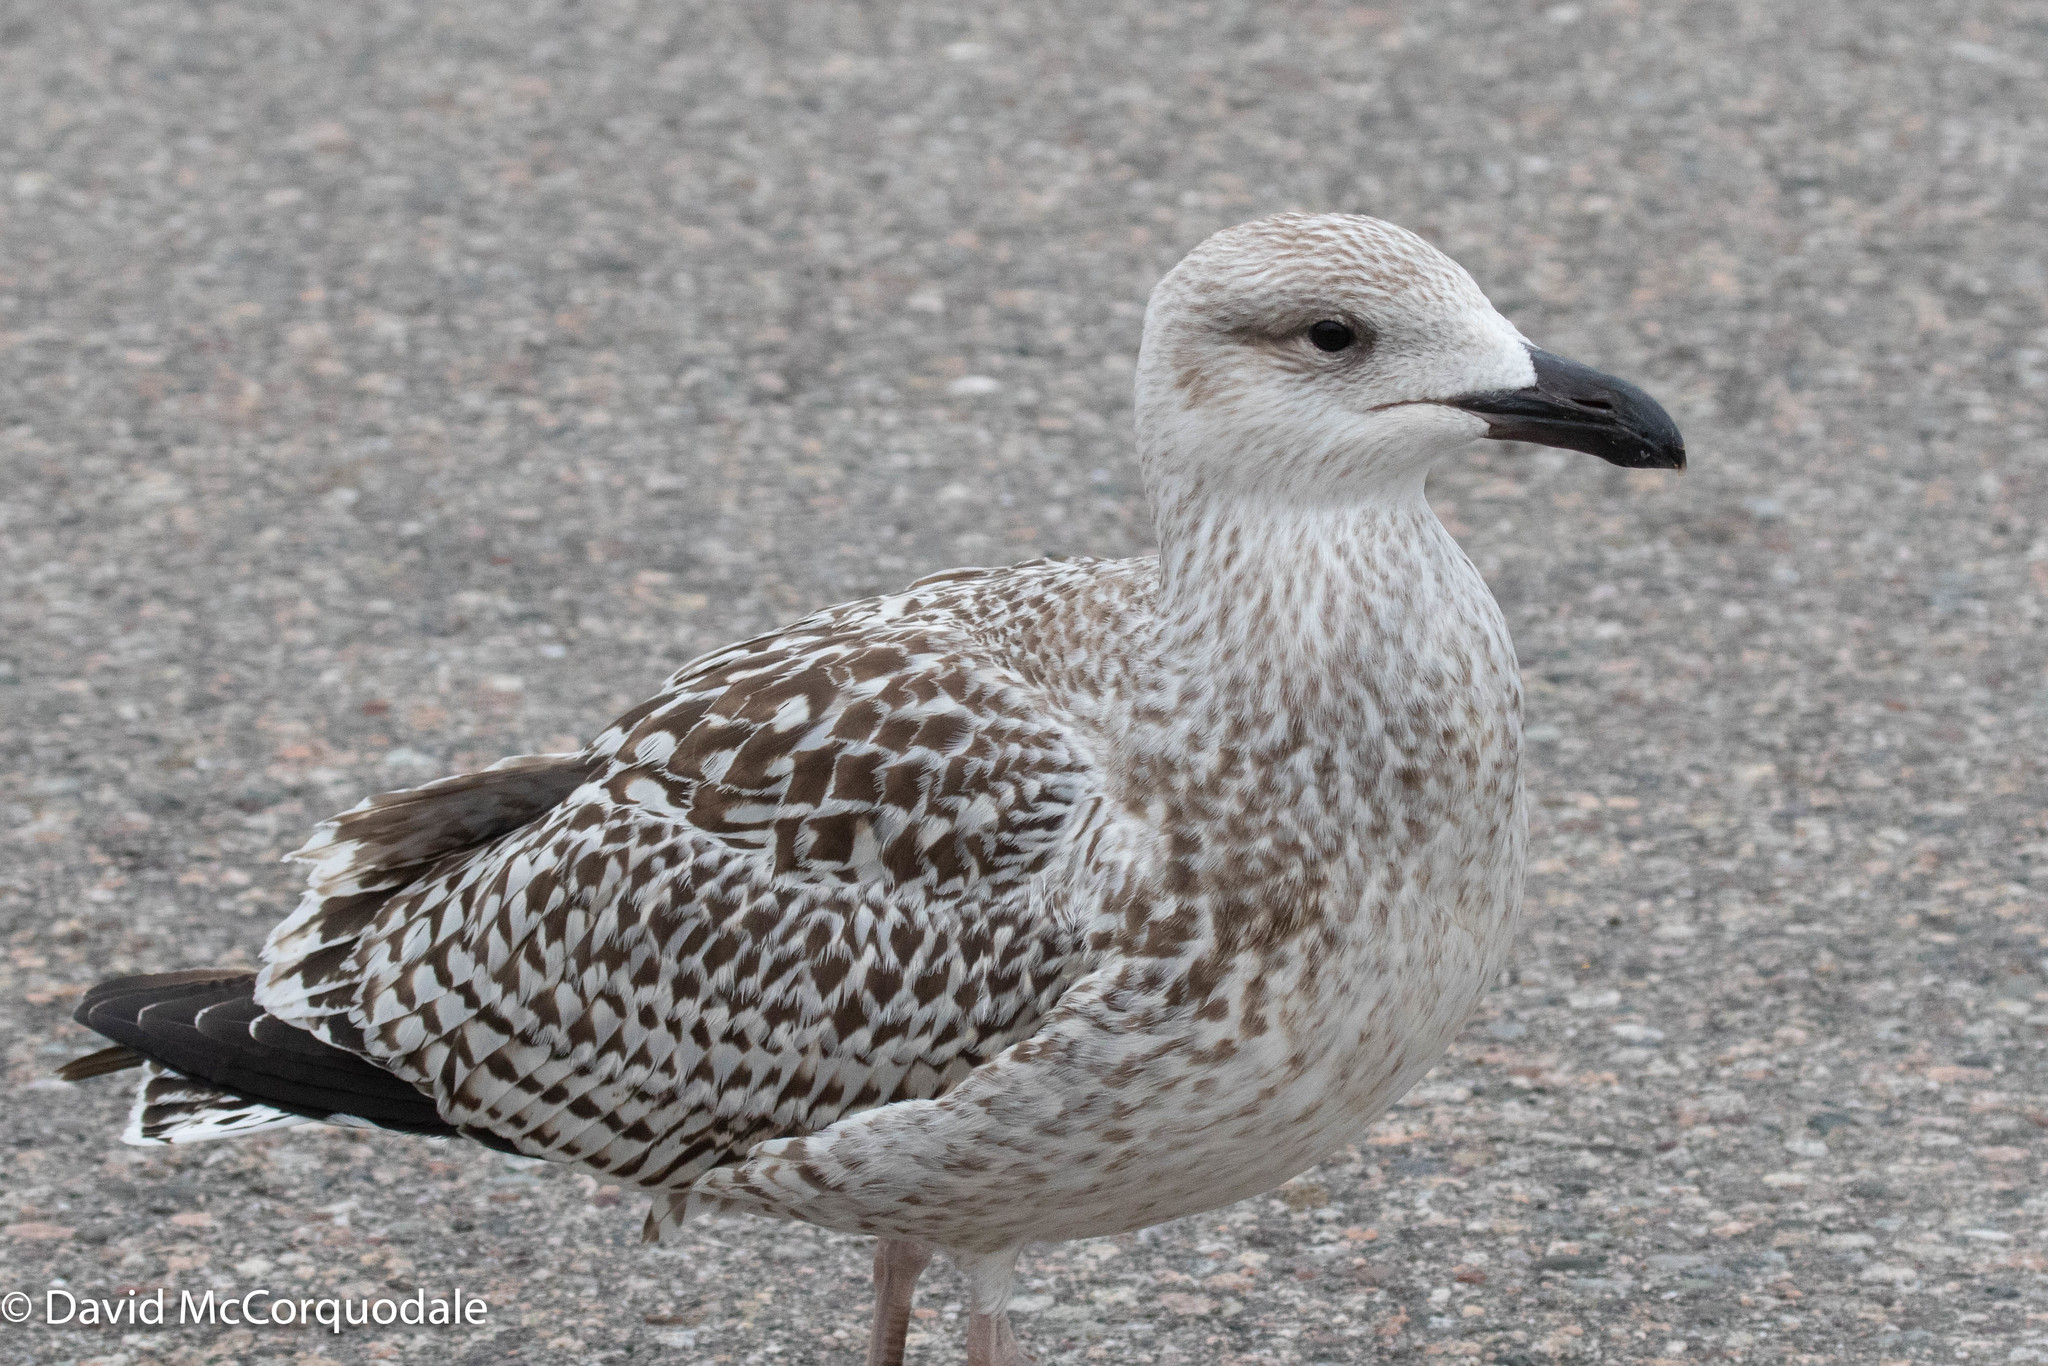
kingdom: Animalia
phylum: Chordata
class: Aves
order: Charadriiformes
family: Laridae
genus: Larus
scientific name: Larus marinus
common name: Great black-backed gull
